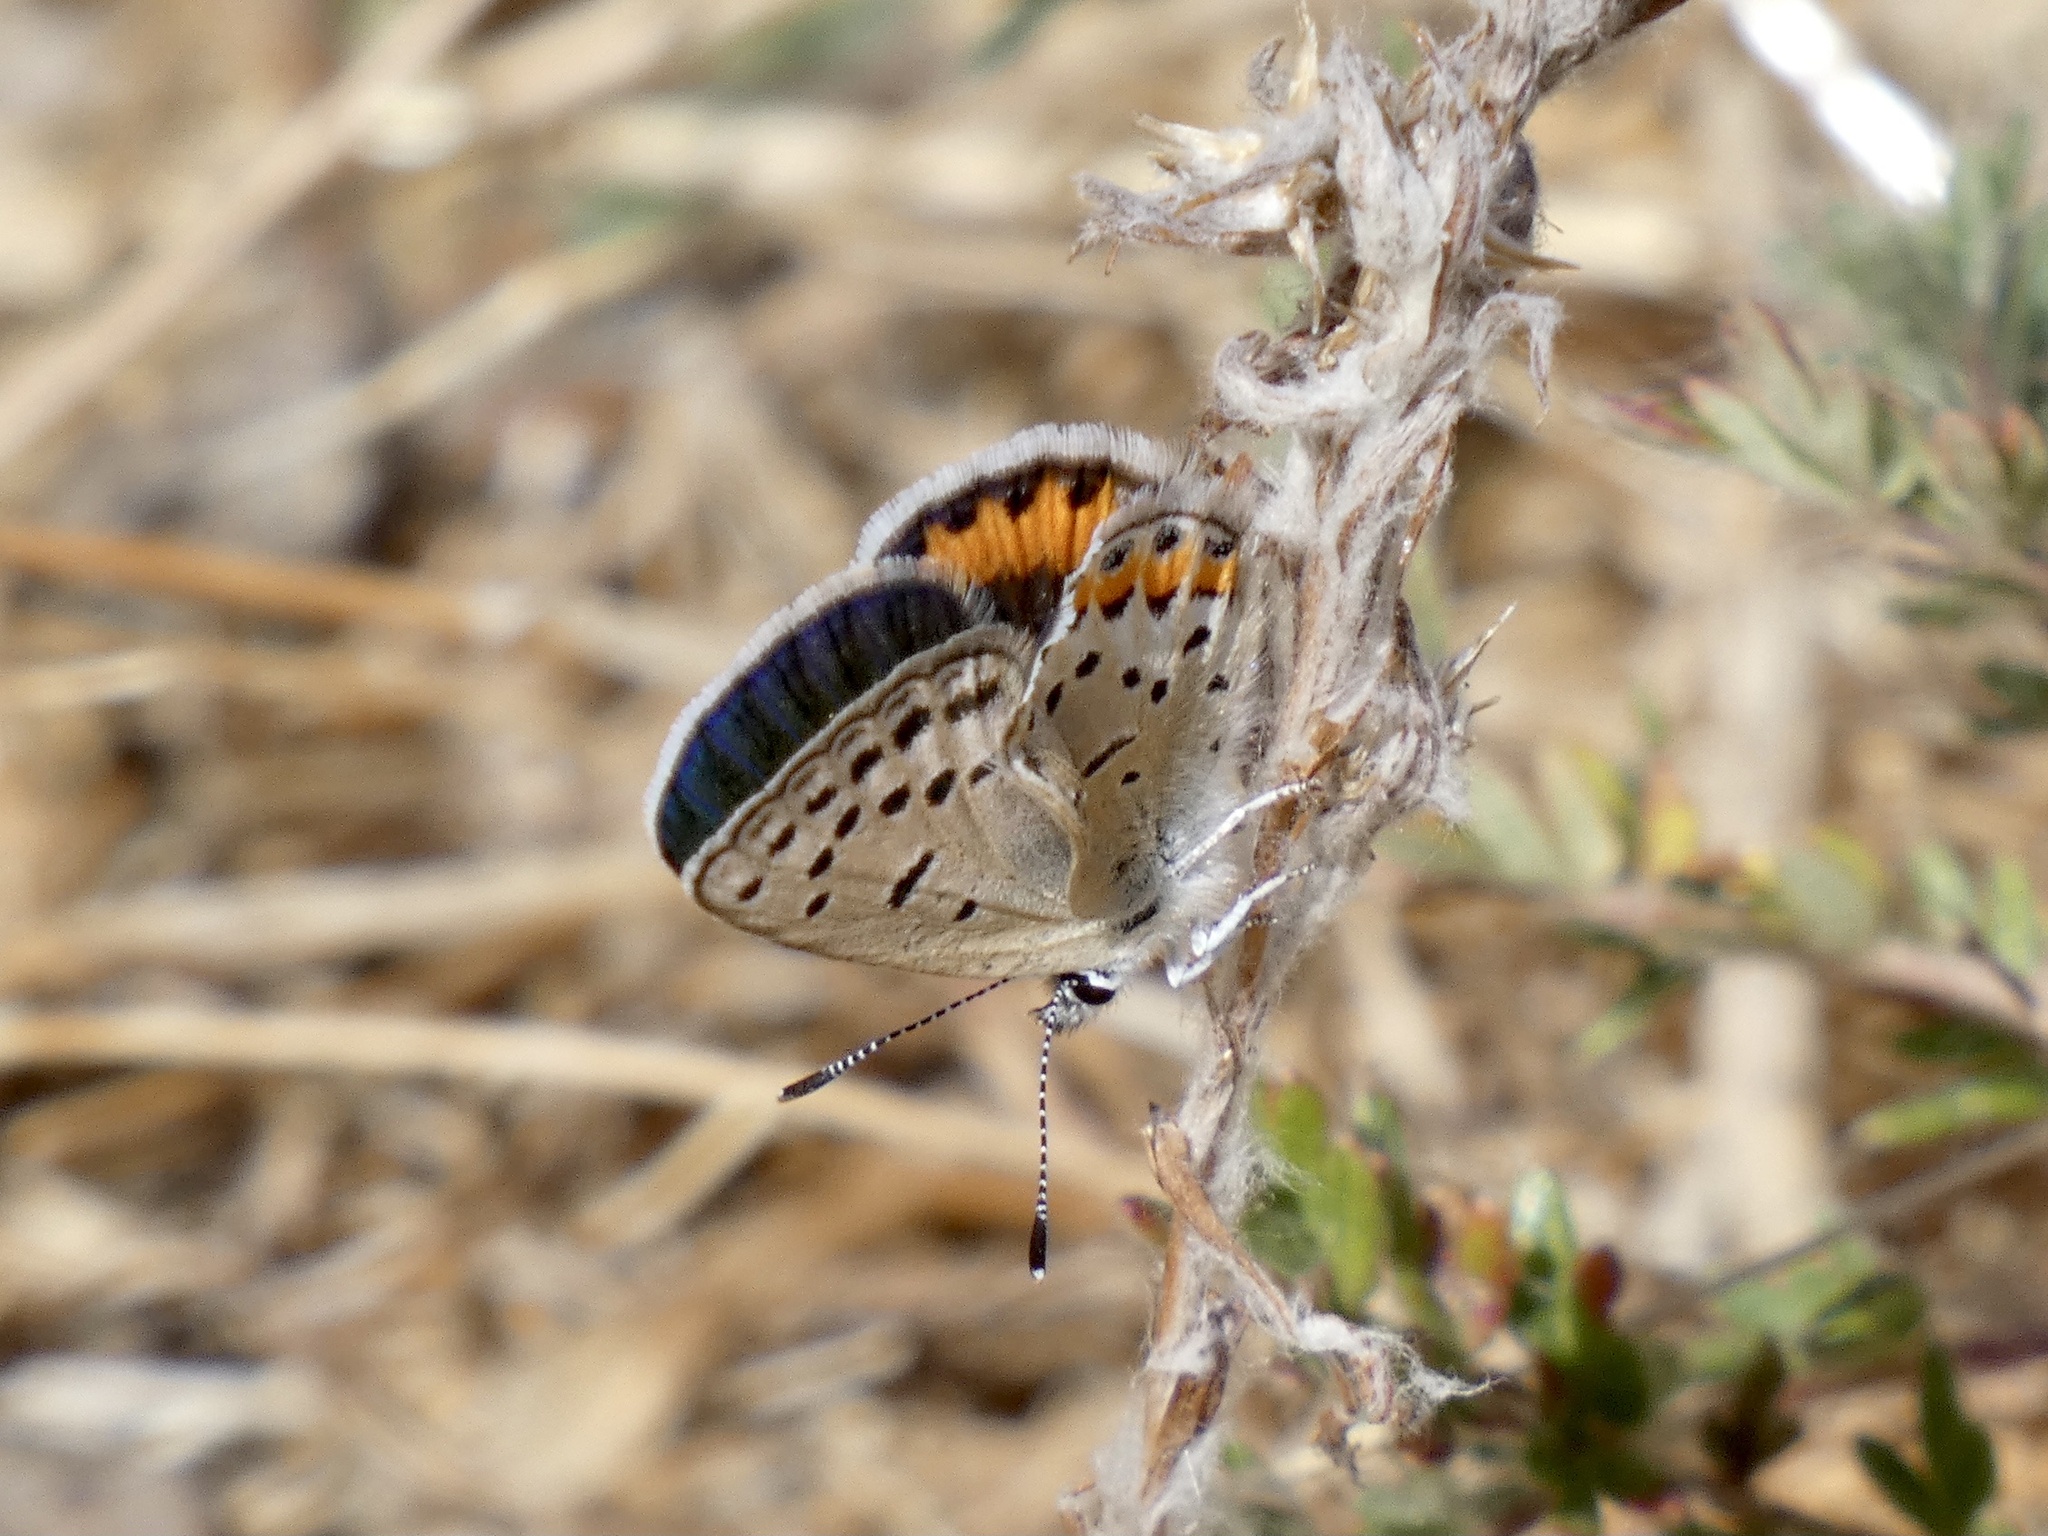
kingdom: Animalia
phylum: Arthropoda
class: Insecta
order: Lepidoptera
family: Lycaenidae
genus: Icaricia
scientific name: Icaricia acmon
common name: Acmon blue
